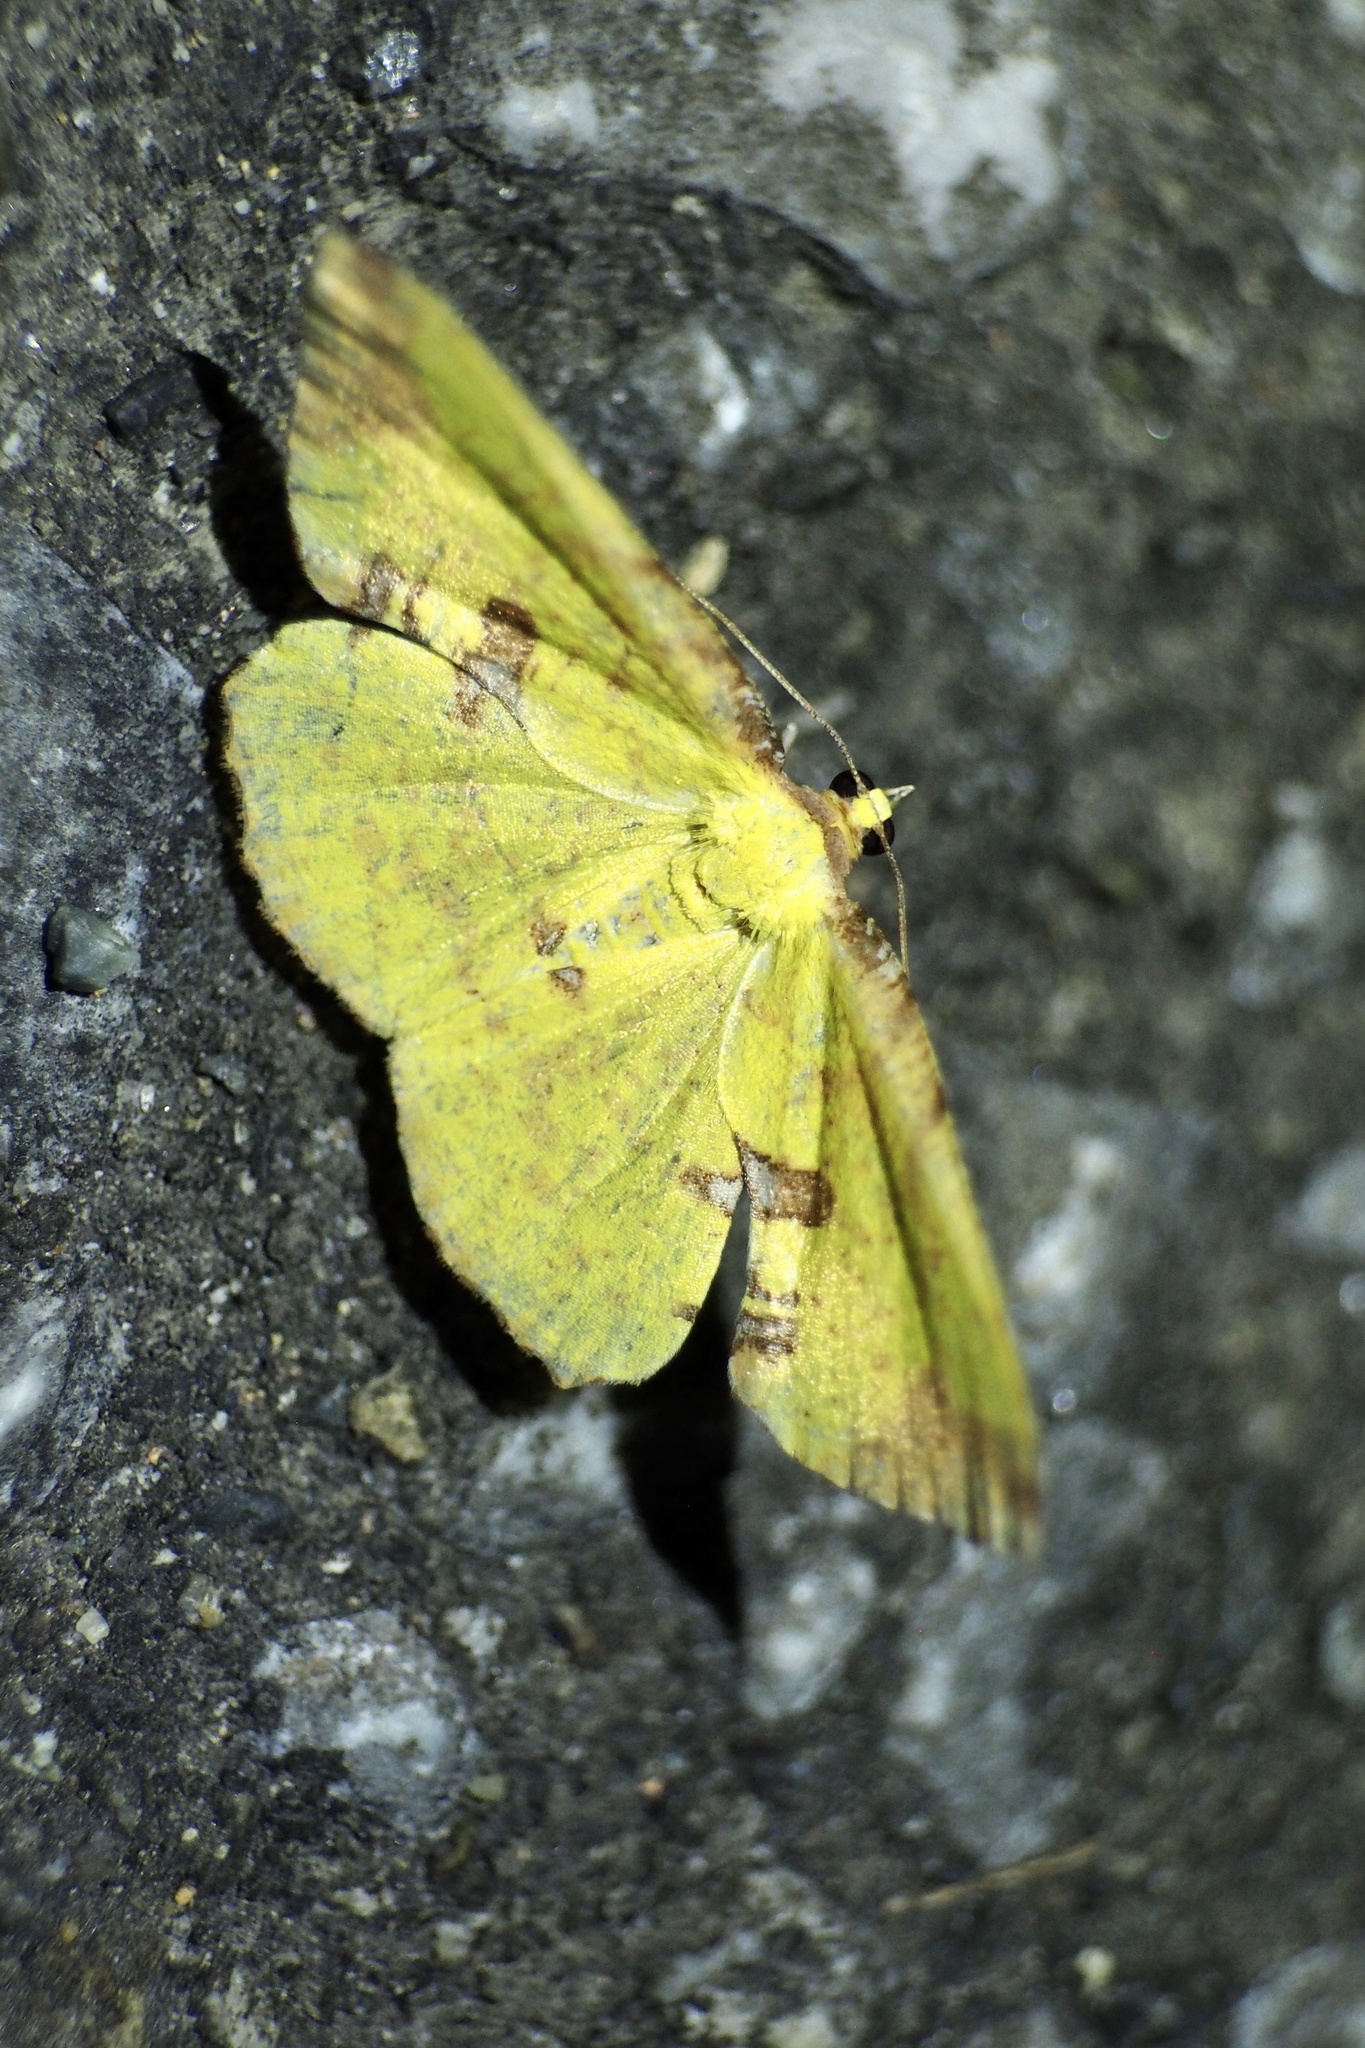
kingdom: Animalia
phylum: Arthropoda
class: Insecta
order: Lepidoptera
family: Geometridae
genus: Corymica
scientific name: Corymica pryeri
